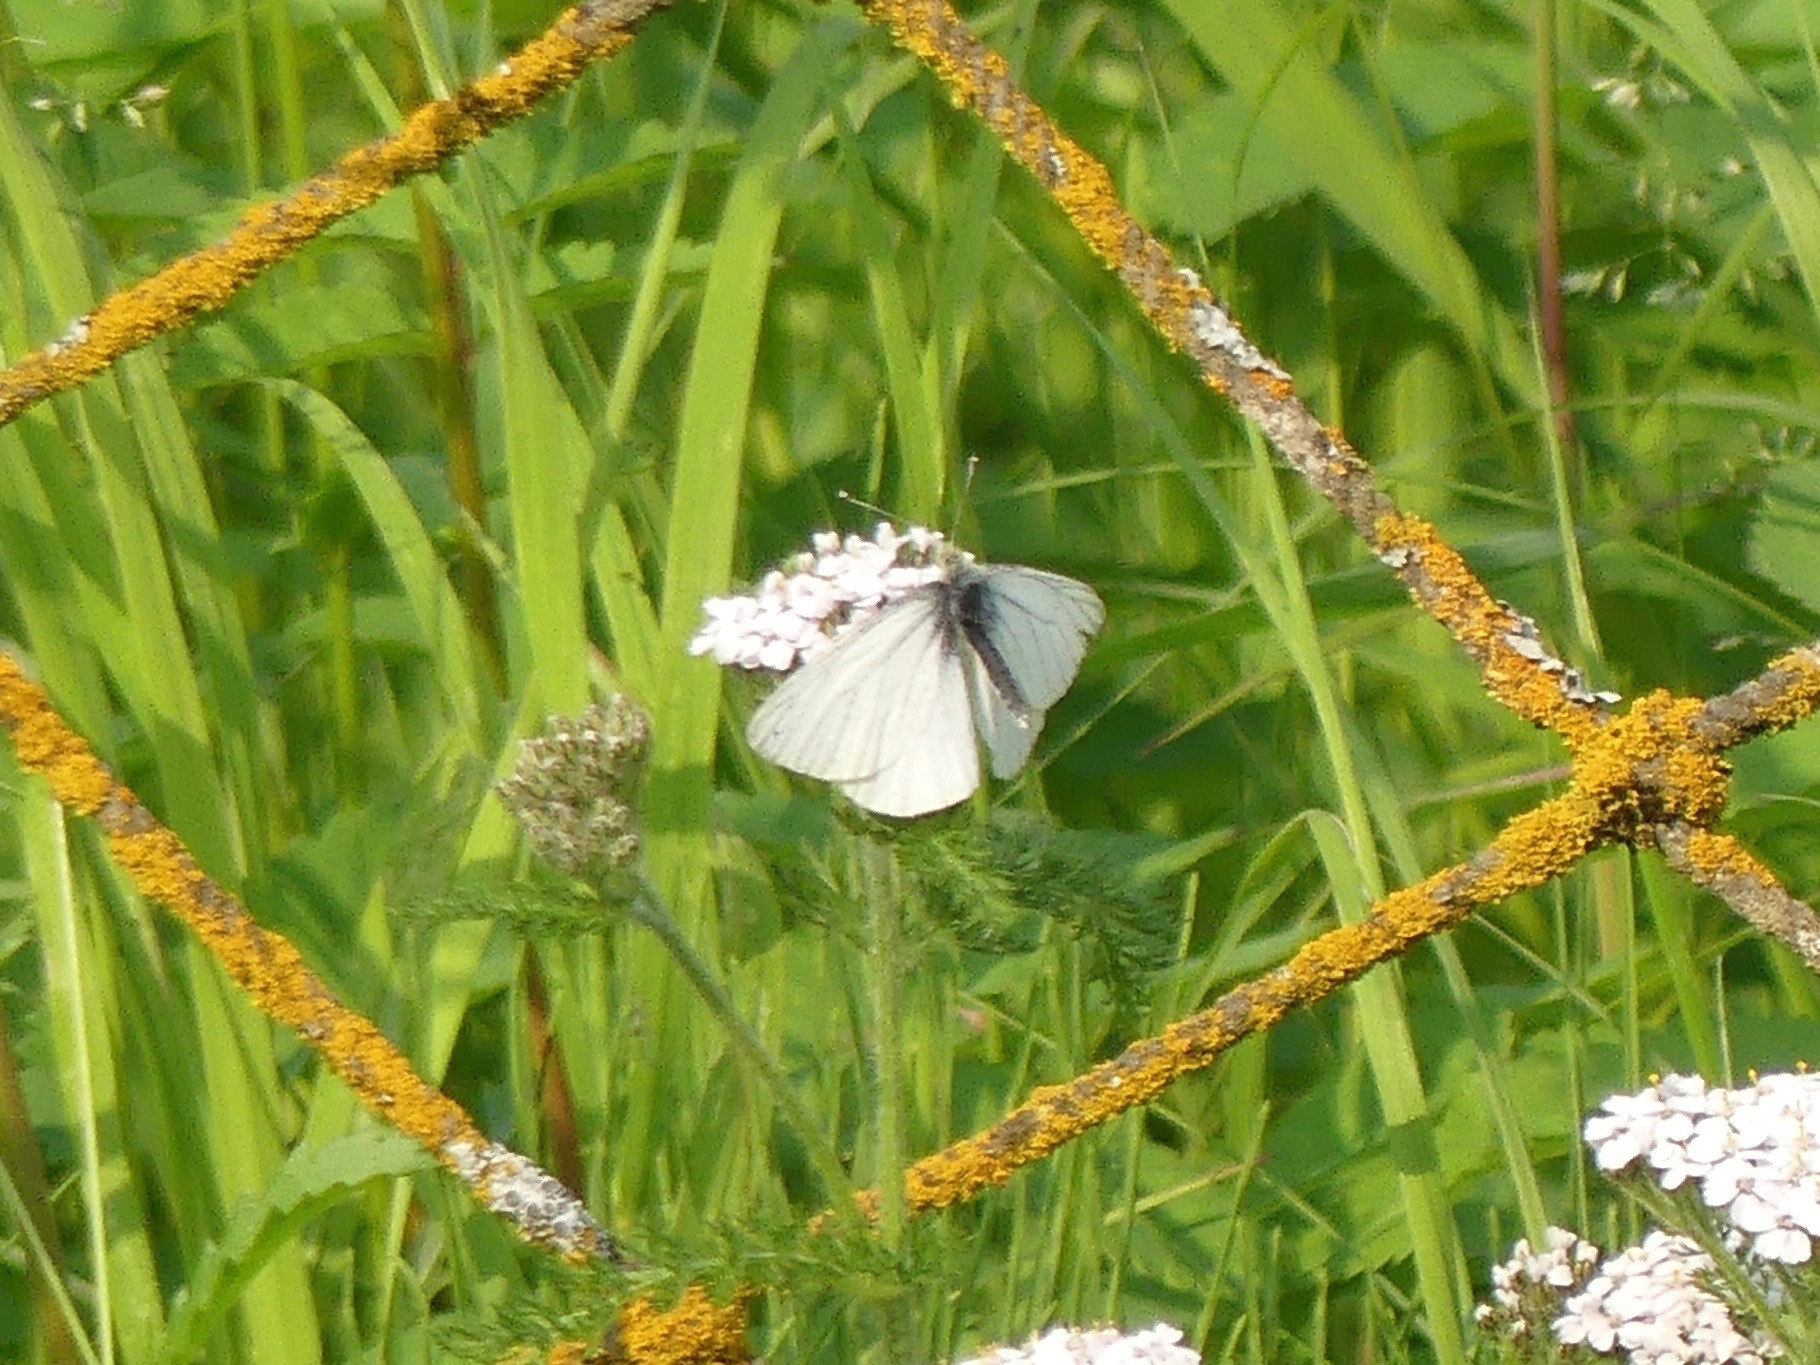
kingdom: Animalia
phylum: Arthropoda
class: Insecta
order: Lepidoptera
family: Pieridae
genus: Pieris
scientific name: Pieris marginalis
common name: Margined white
